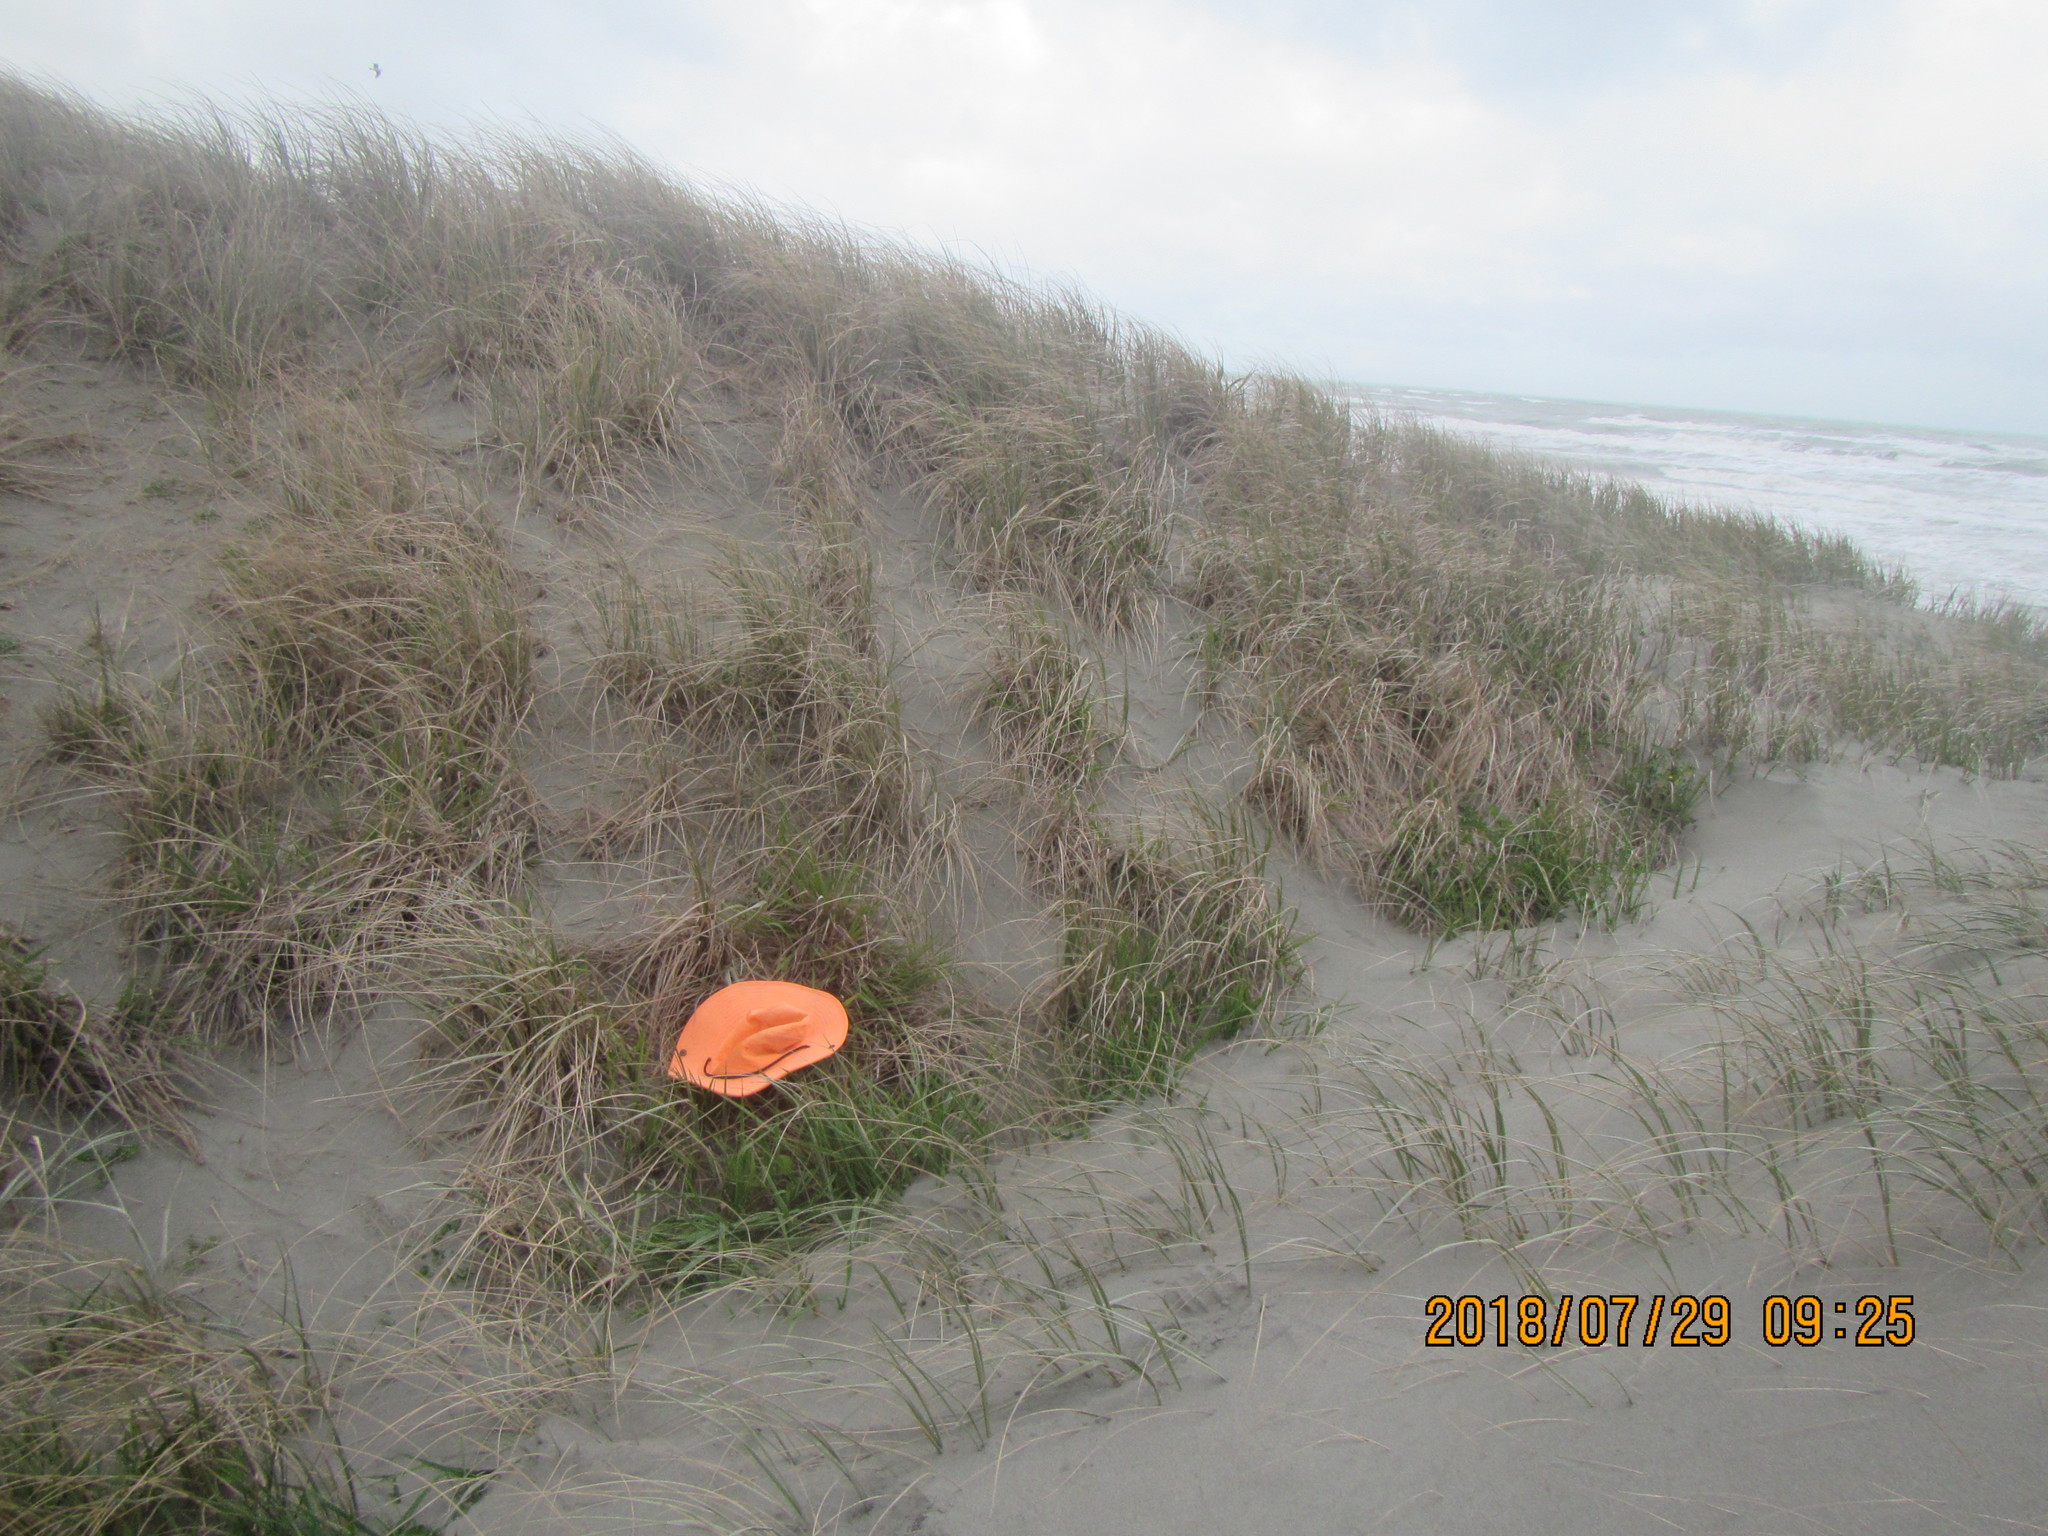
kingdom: Animalia
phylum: Arthropoda
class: Arachnida
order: Araneae
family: Theridiidae
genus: Steatoda
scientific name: Steatoda capensis
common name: Cobweb weaver
